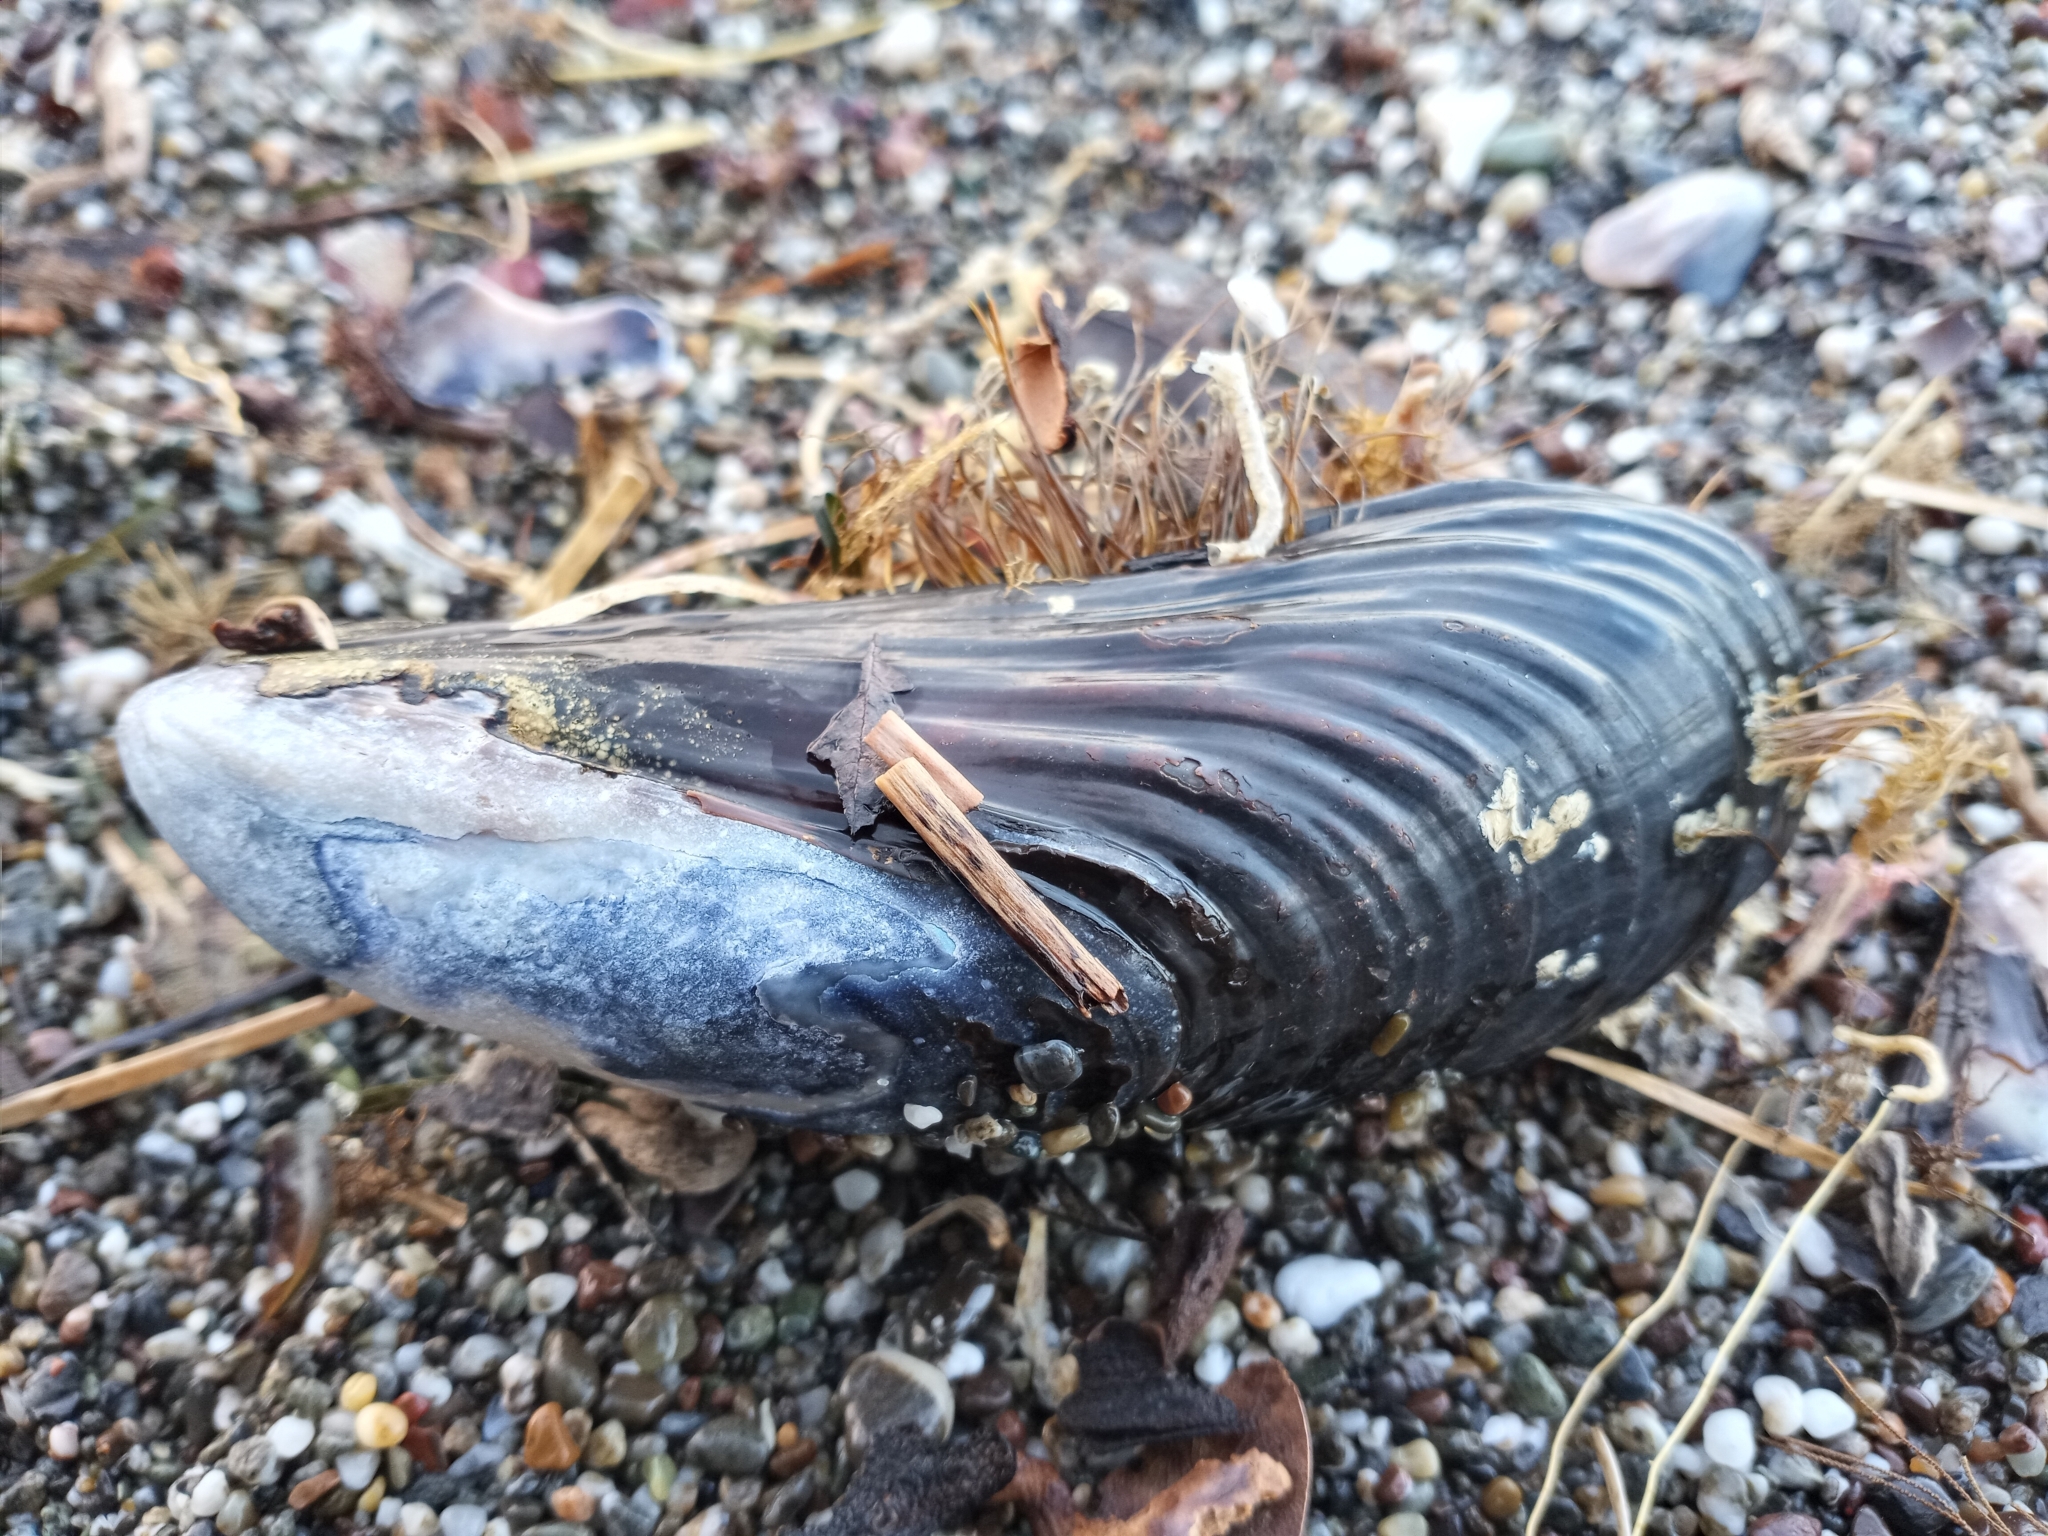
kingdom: Animalia
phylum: Mollusca
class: Bivalvia
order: Mytilida
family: Mytilidae
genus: Mytilus
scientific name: Mytilus trossulus
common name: Northern blue mussel
